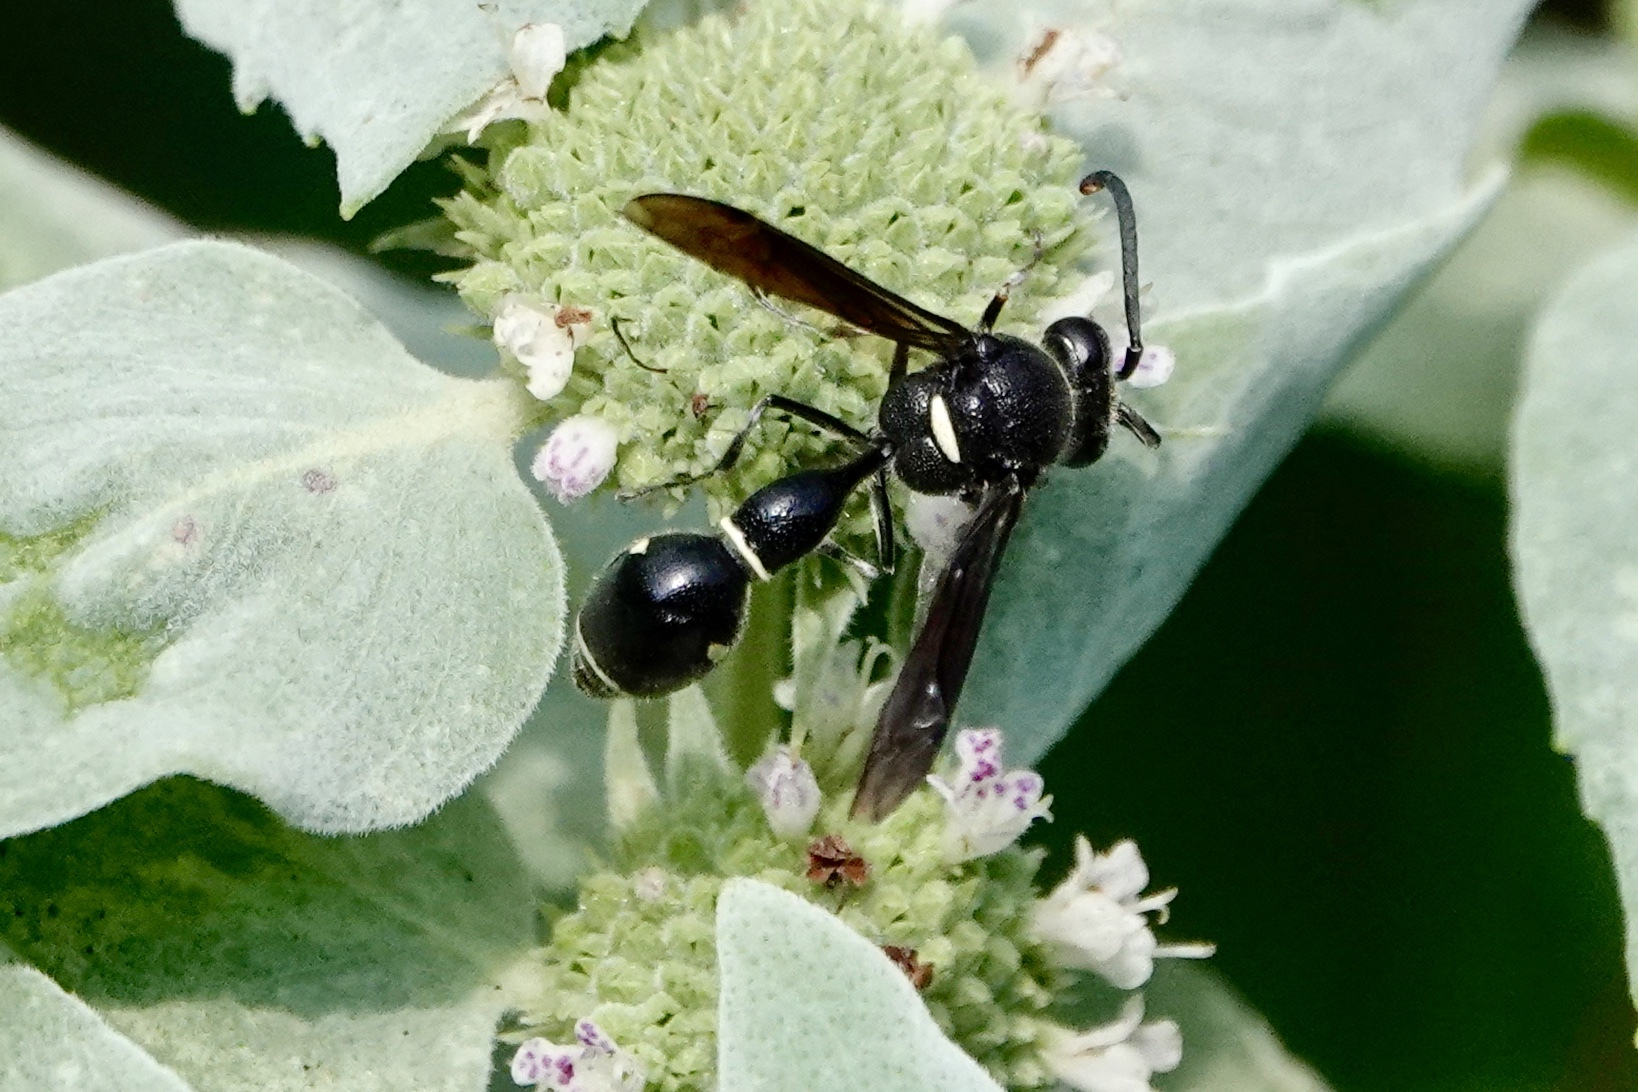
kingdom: Animalia
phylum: Arthropoda
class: Insecta
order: Hymenoptera
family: Vespidae
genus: Eumenes
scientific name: Eumenes fraternus
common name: Fraternal potter wasp
